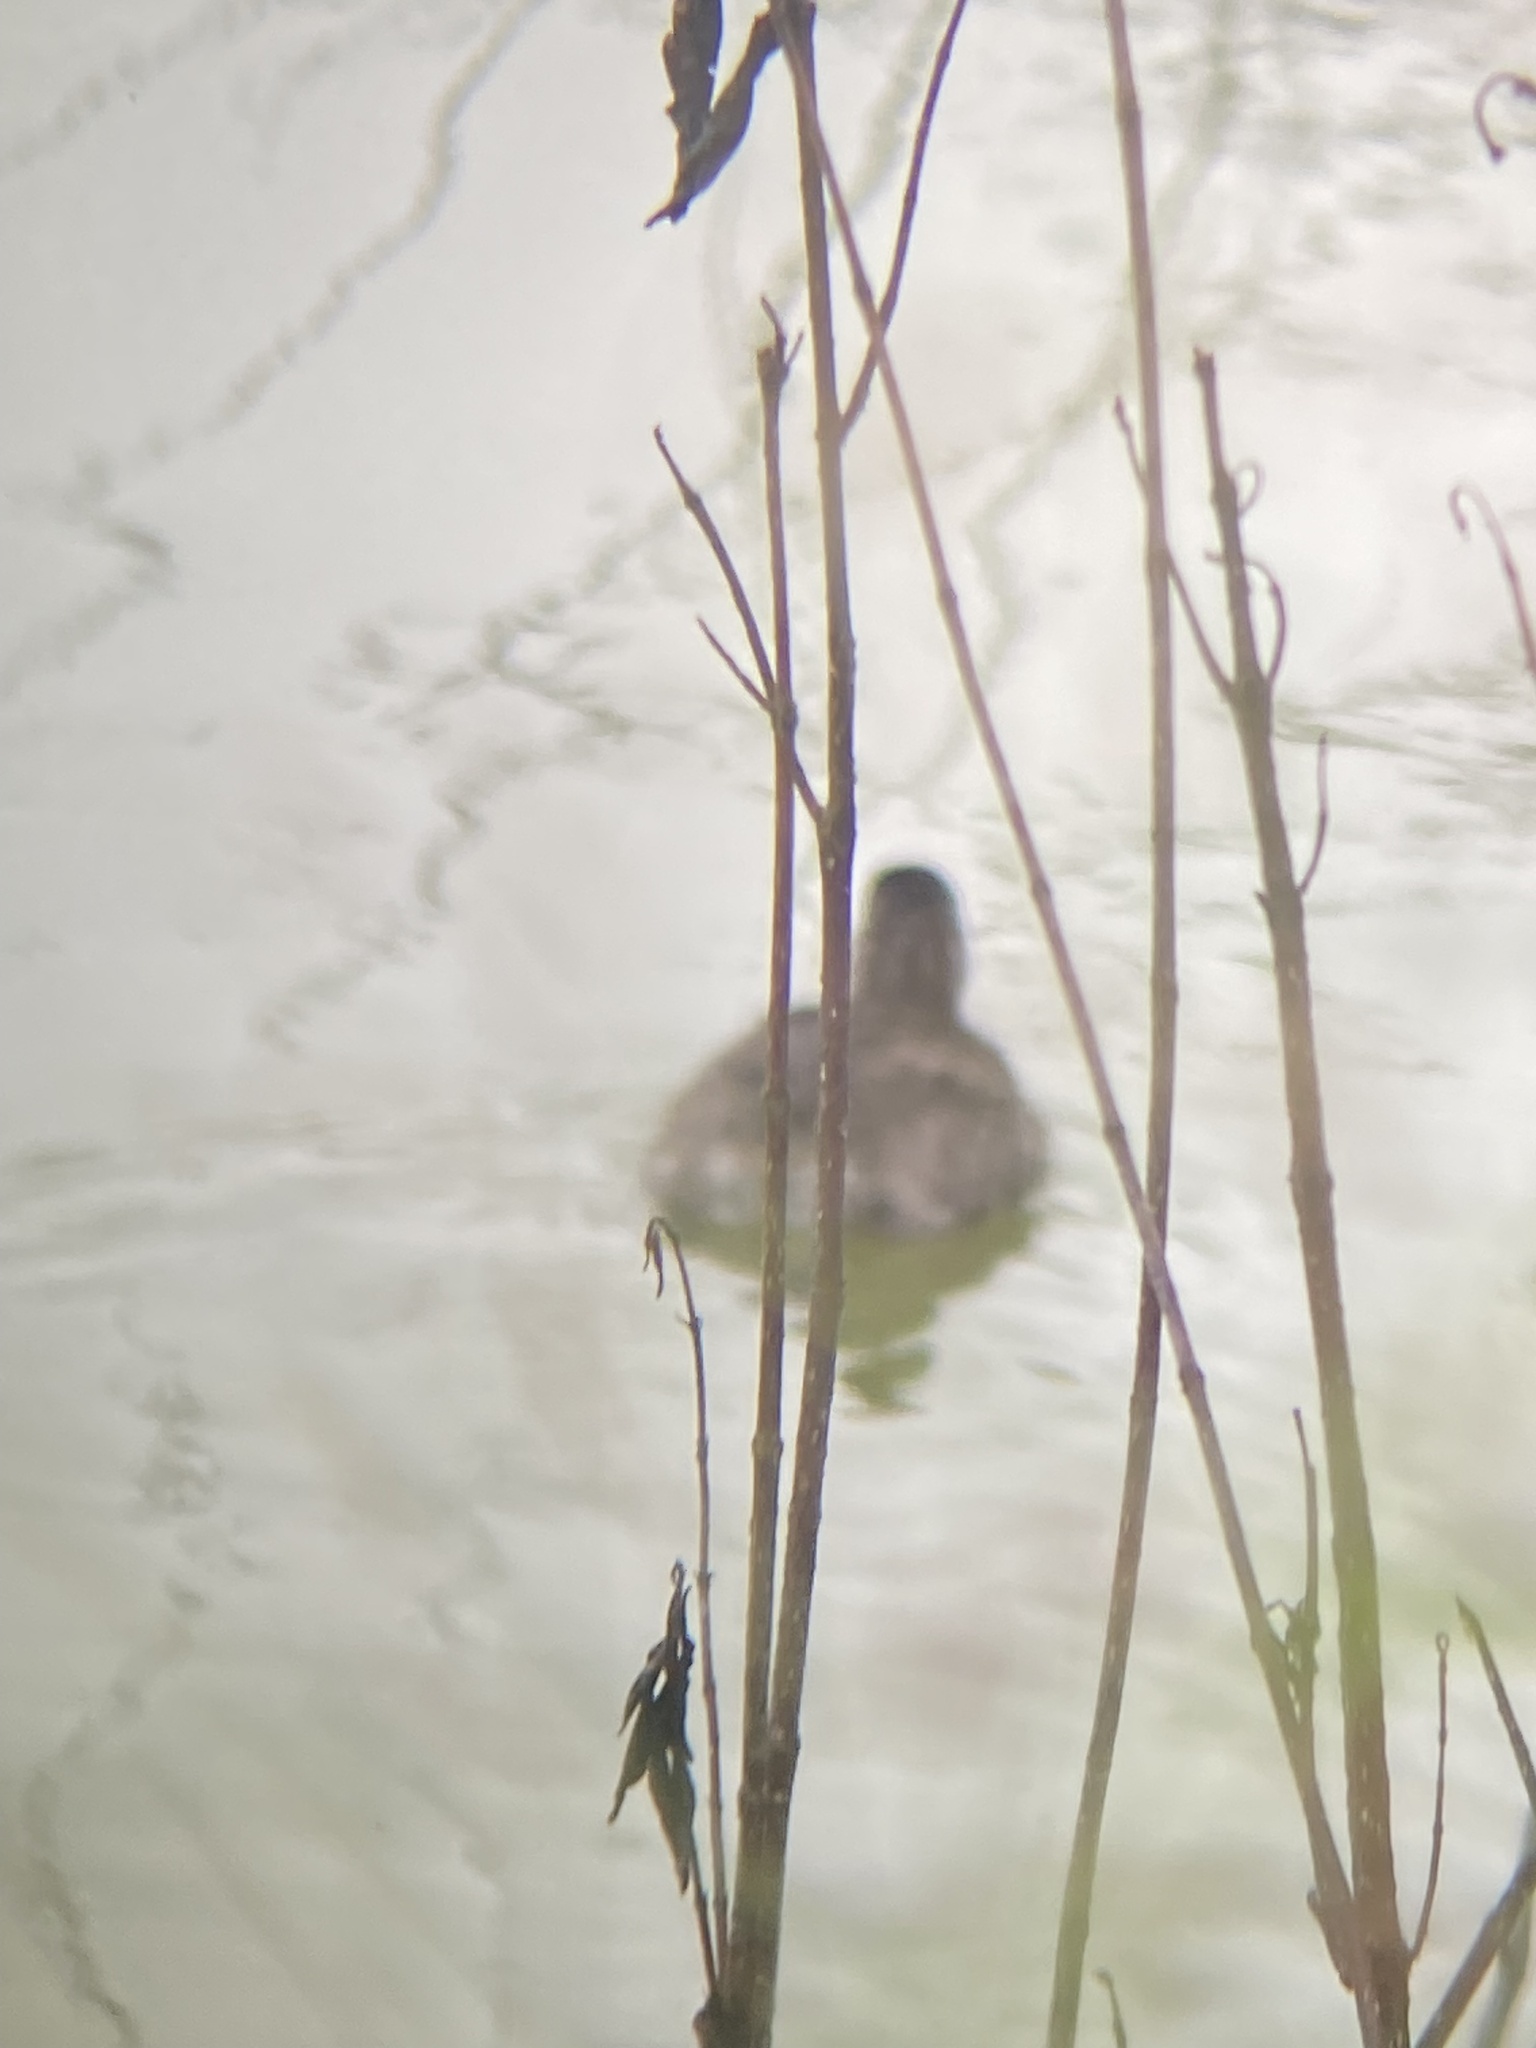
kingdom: Animalia
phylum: Chordata
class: Aves
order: Podicipediformes
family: Podicipedidae
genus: Tachybaptus
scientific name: Tachybaptus dominicus
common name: Least grebe
